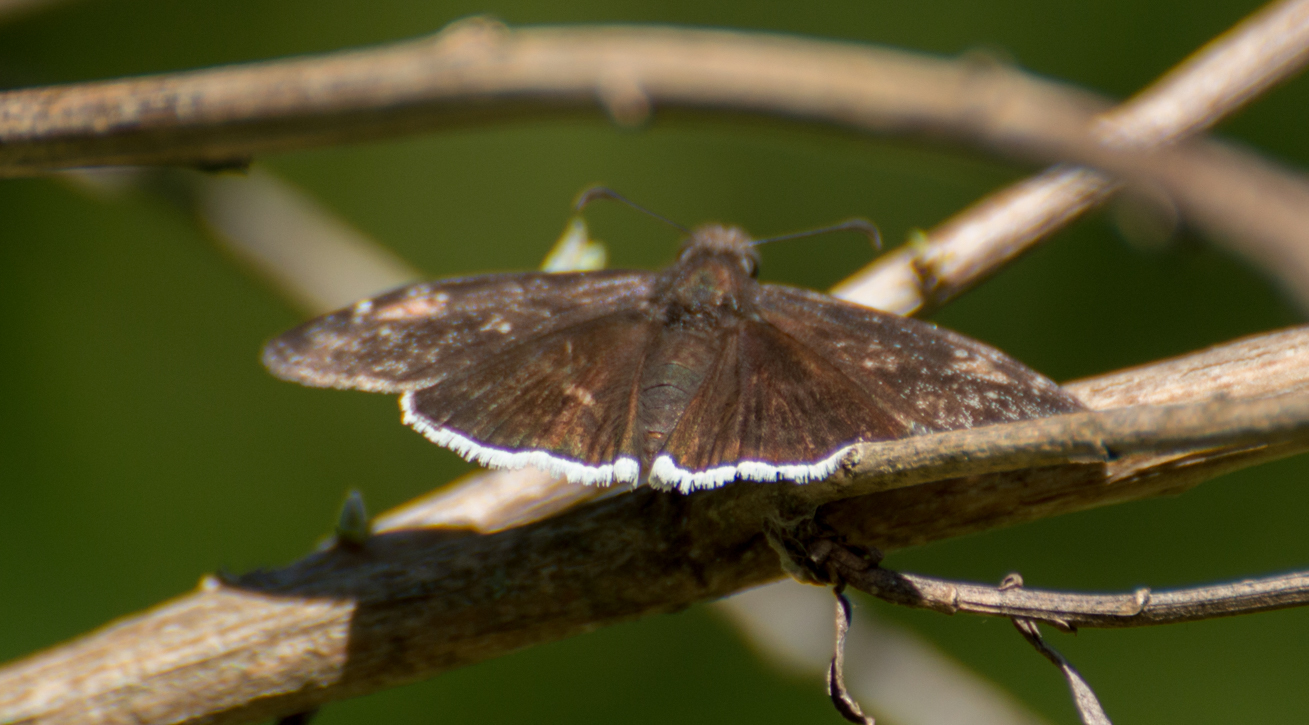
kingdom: Animalia
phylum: Arthropoda
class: Insecta
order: Lepidoptera
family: Hesperiidae
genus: Erynnis
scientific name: Erynnis funeralis
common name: Funereal duskywing
